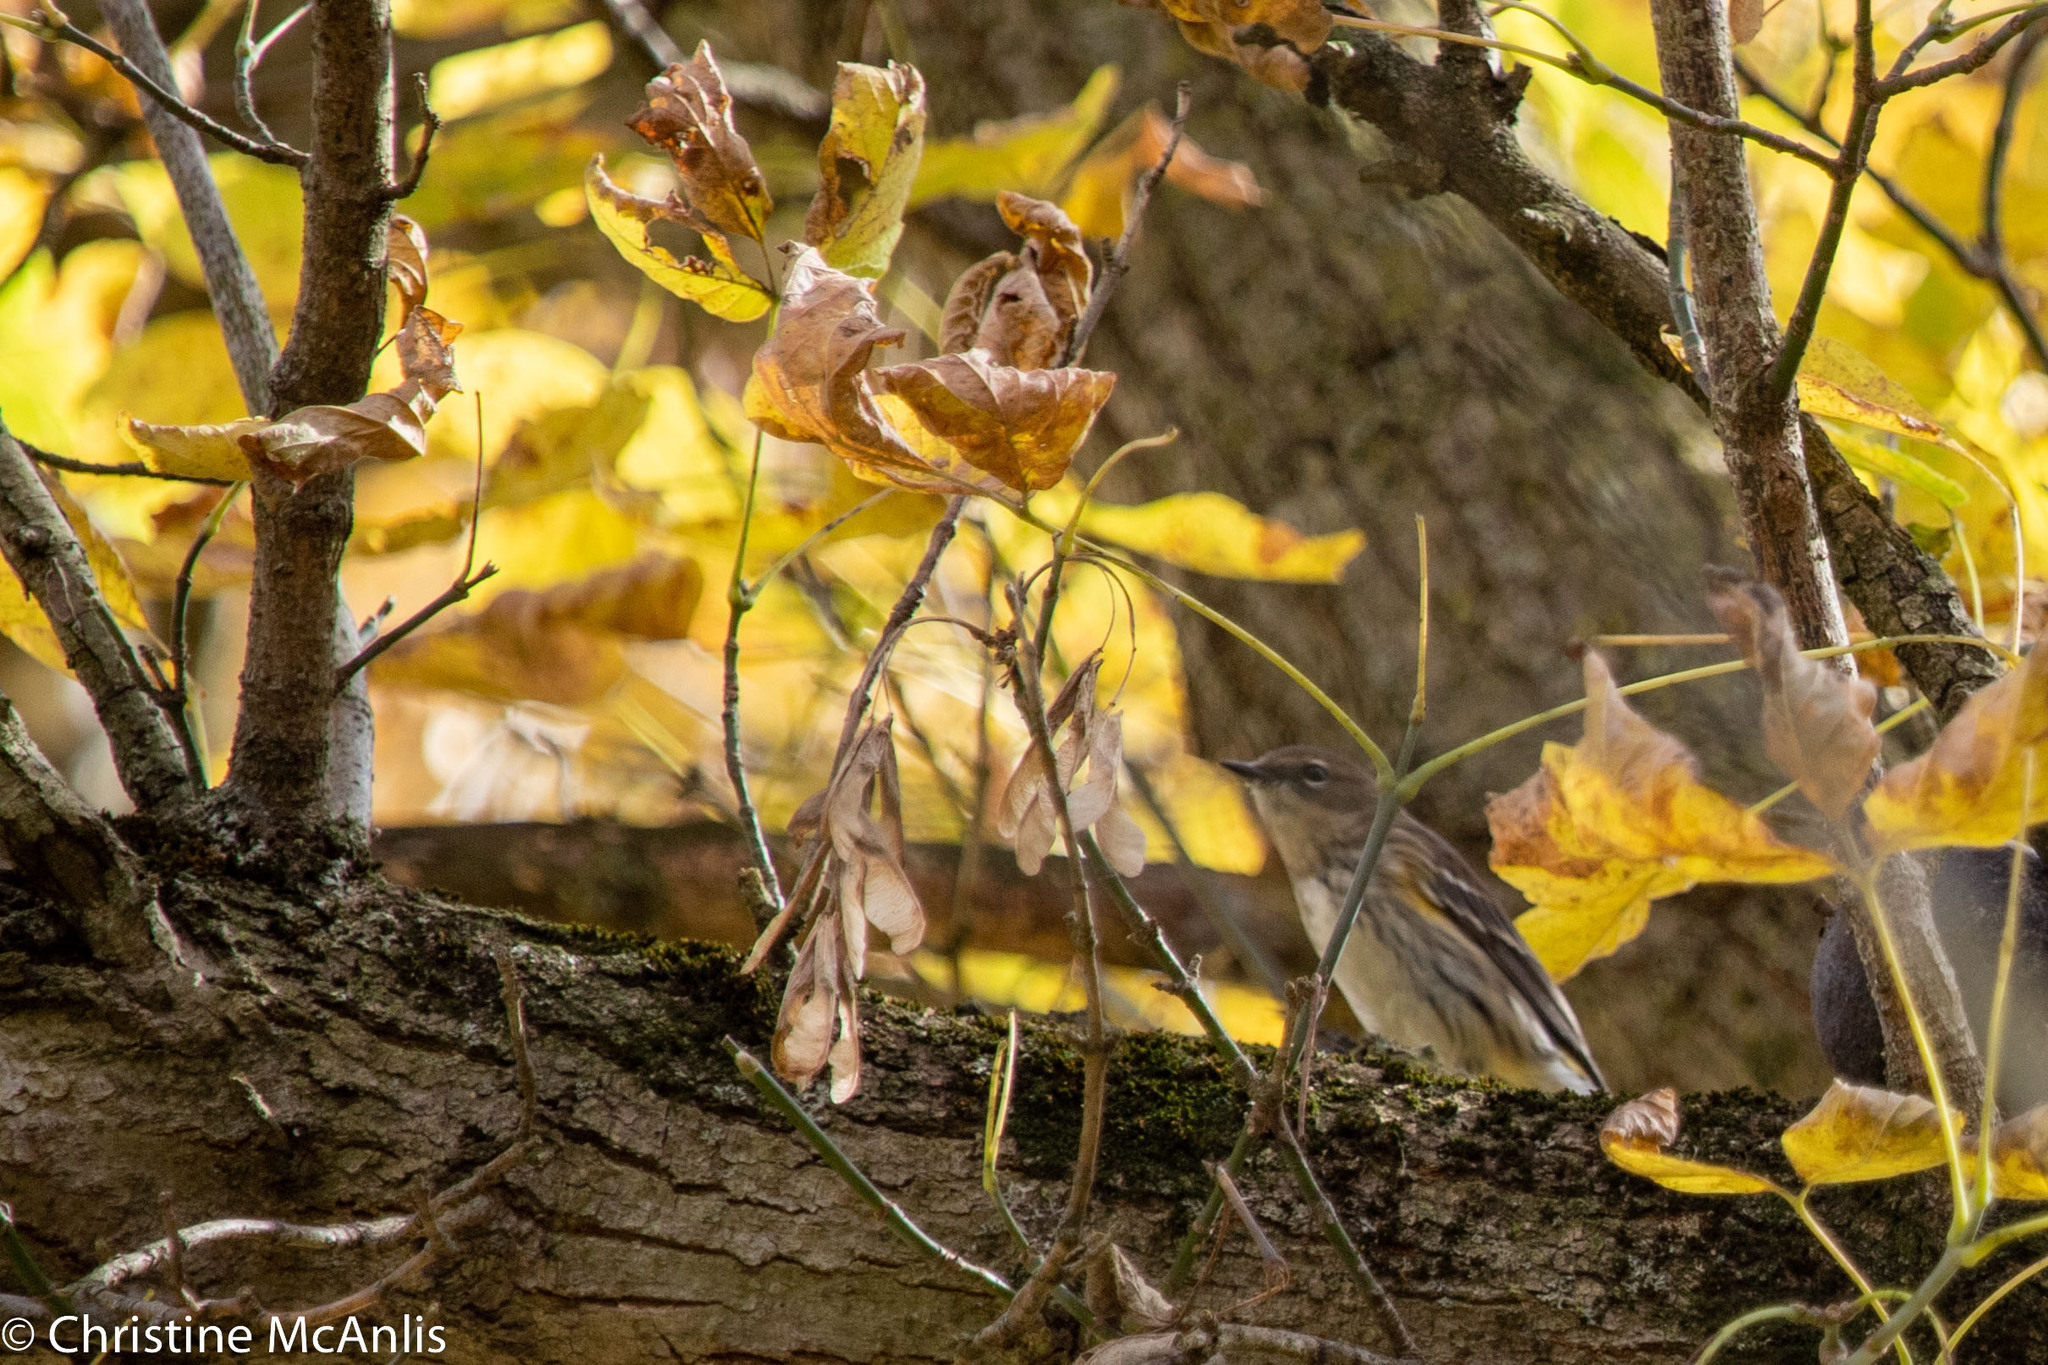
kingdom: Animalia
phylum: Chordata
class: Aves
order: Passeriformes
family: Parulidae
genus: Setophaga
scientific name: Setophaga coronata
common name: Myrtle warbler
